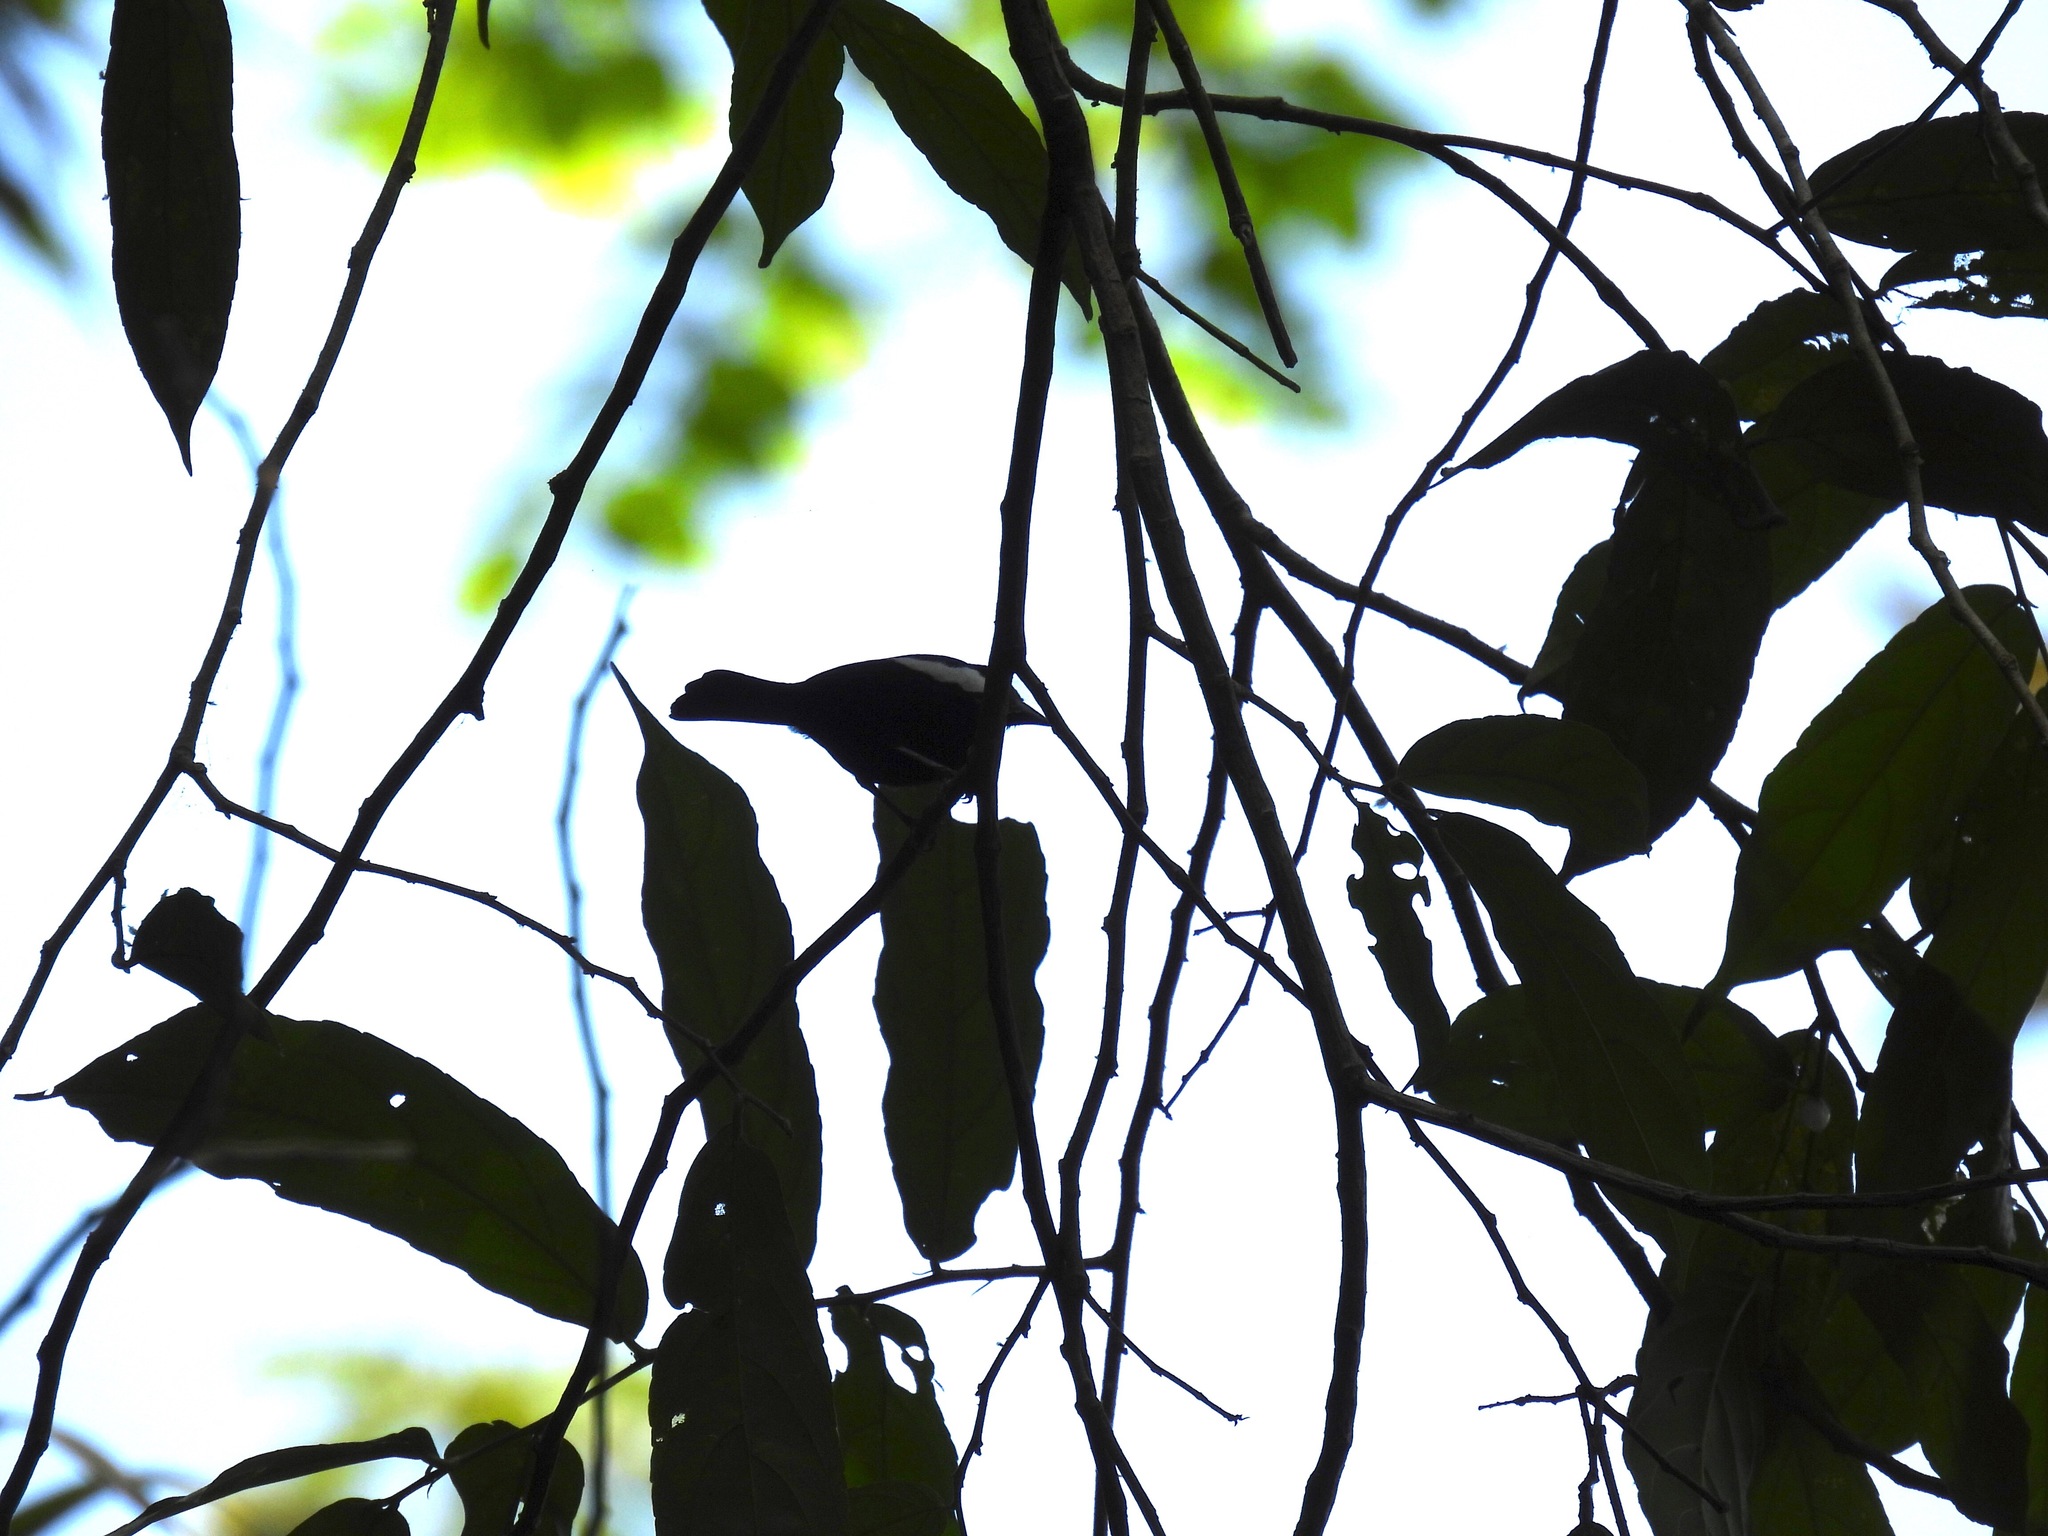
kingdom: Animalia
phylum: Chordata
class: Aves
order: Passeriformes
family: Thraupidae
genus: Loriotus
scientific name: Loriotus luctuosus
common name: White-shouldered tanager
